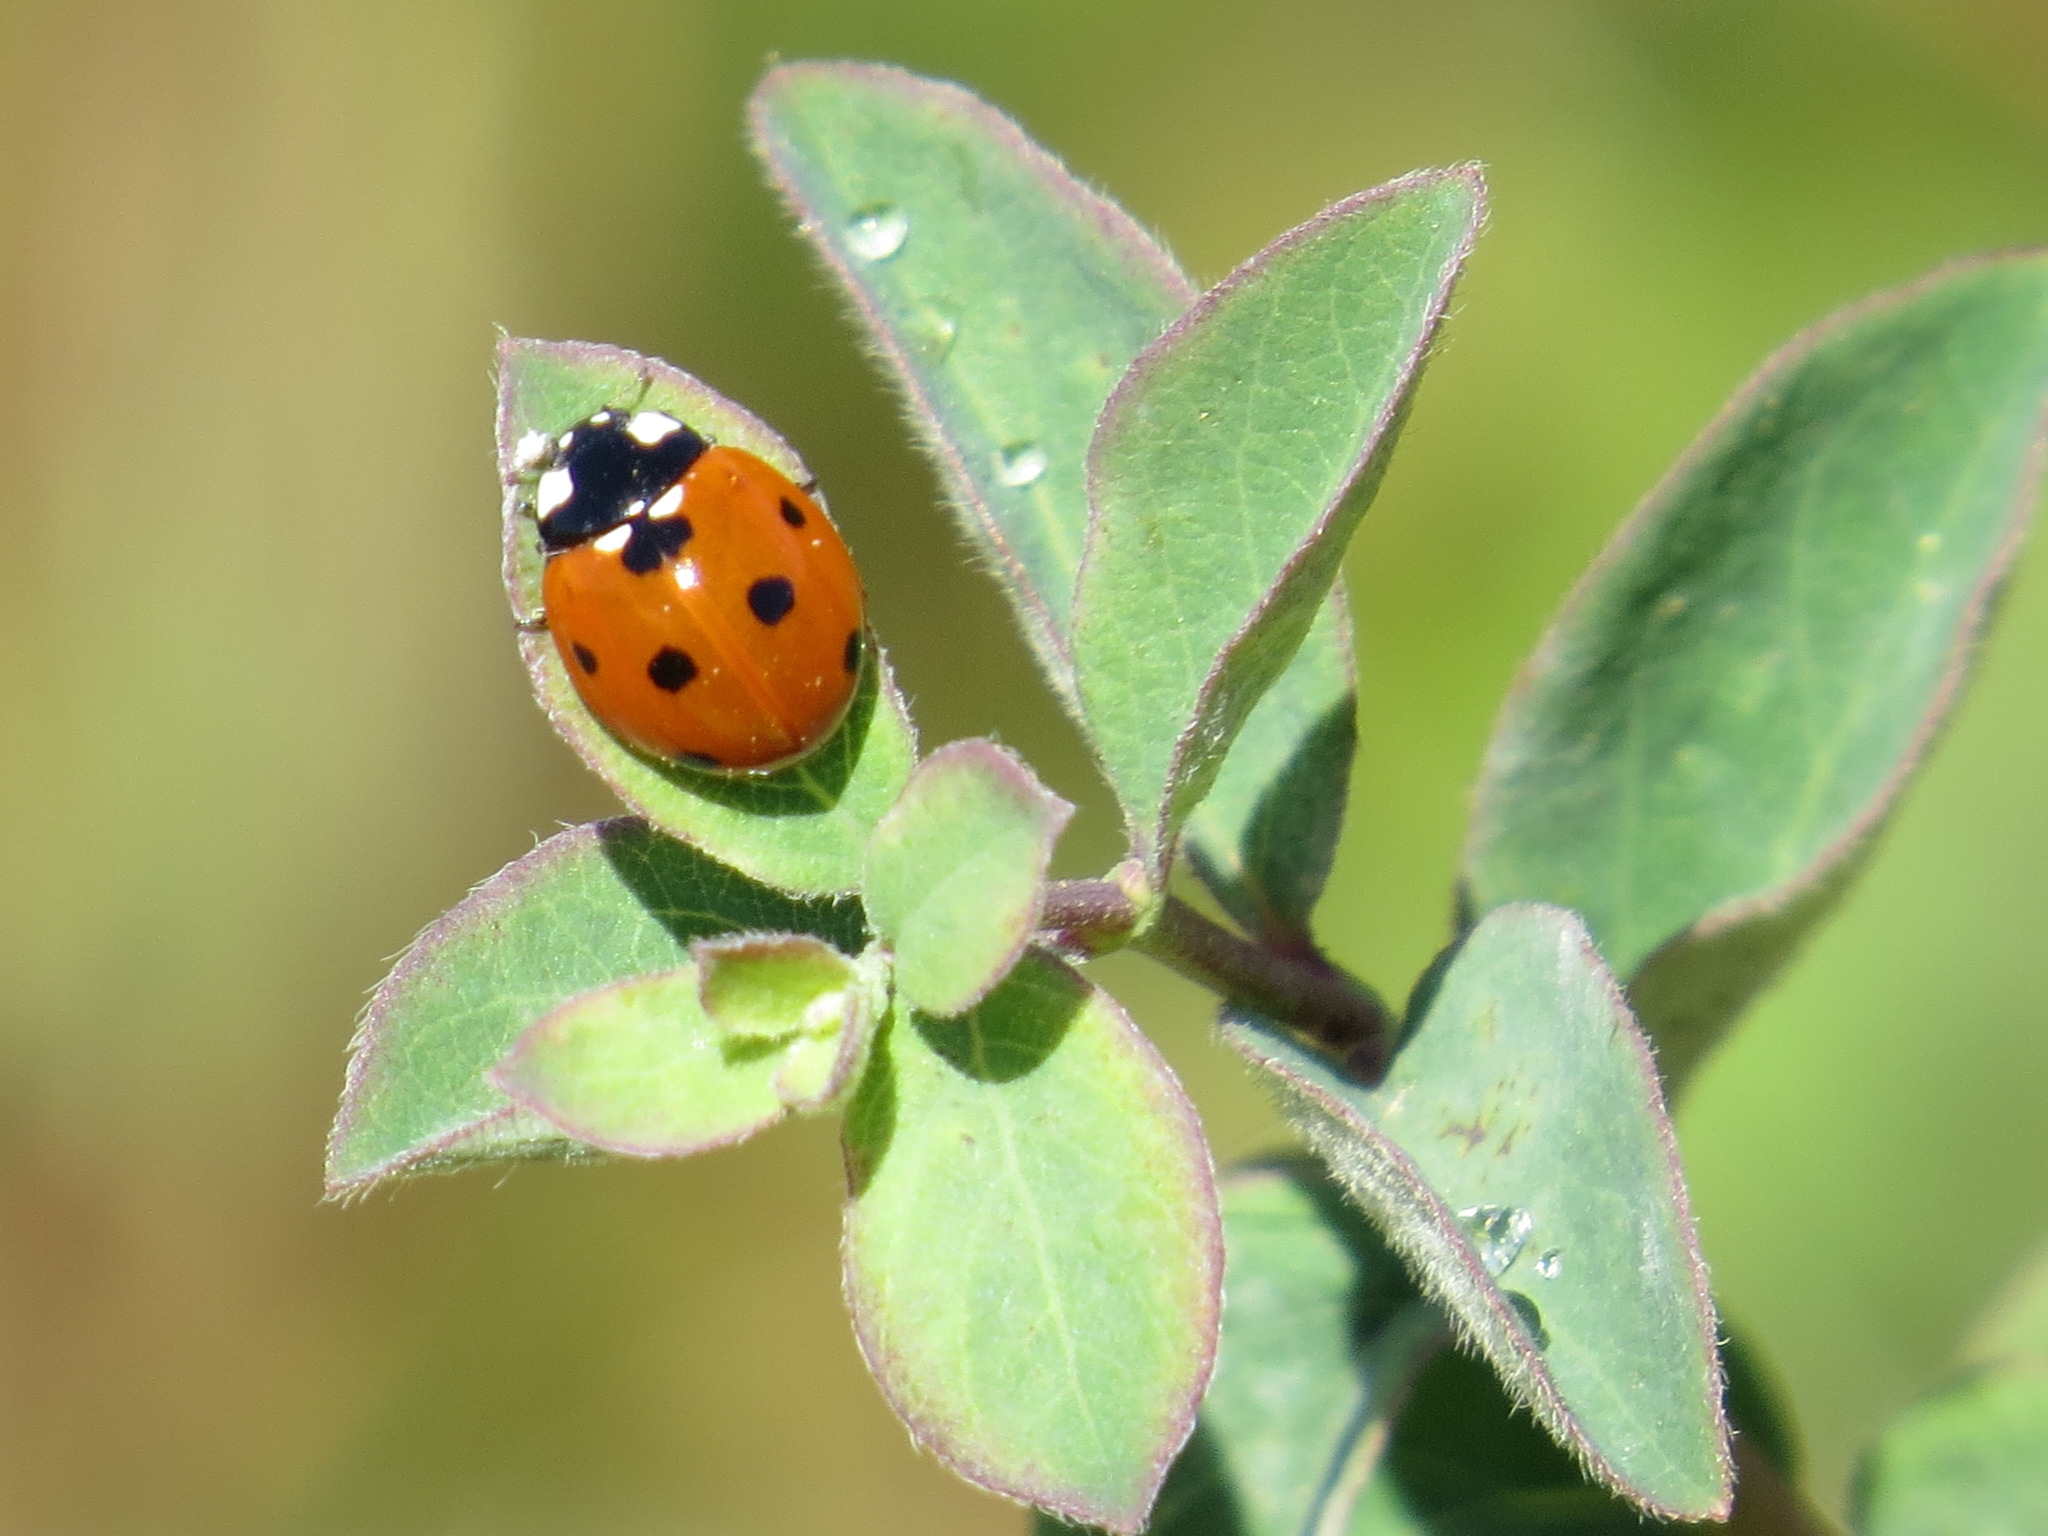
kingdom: Animalia
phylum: Arthropoda
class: Insecta
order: Coleoptera
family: Coccinellidae
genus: Coccinella
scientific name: Coccinella septempunctata
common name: Sevenspotted lady beetle
